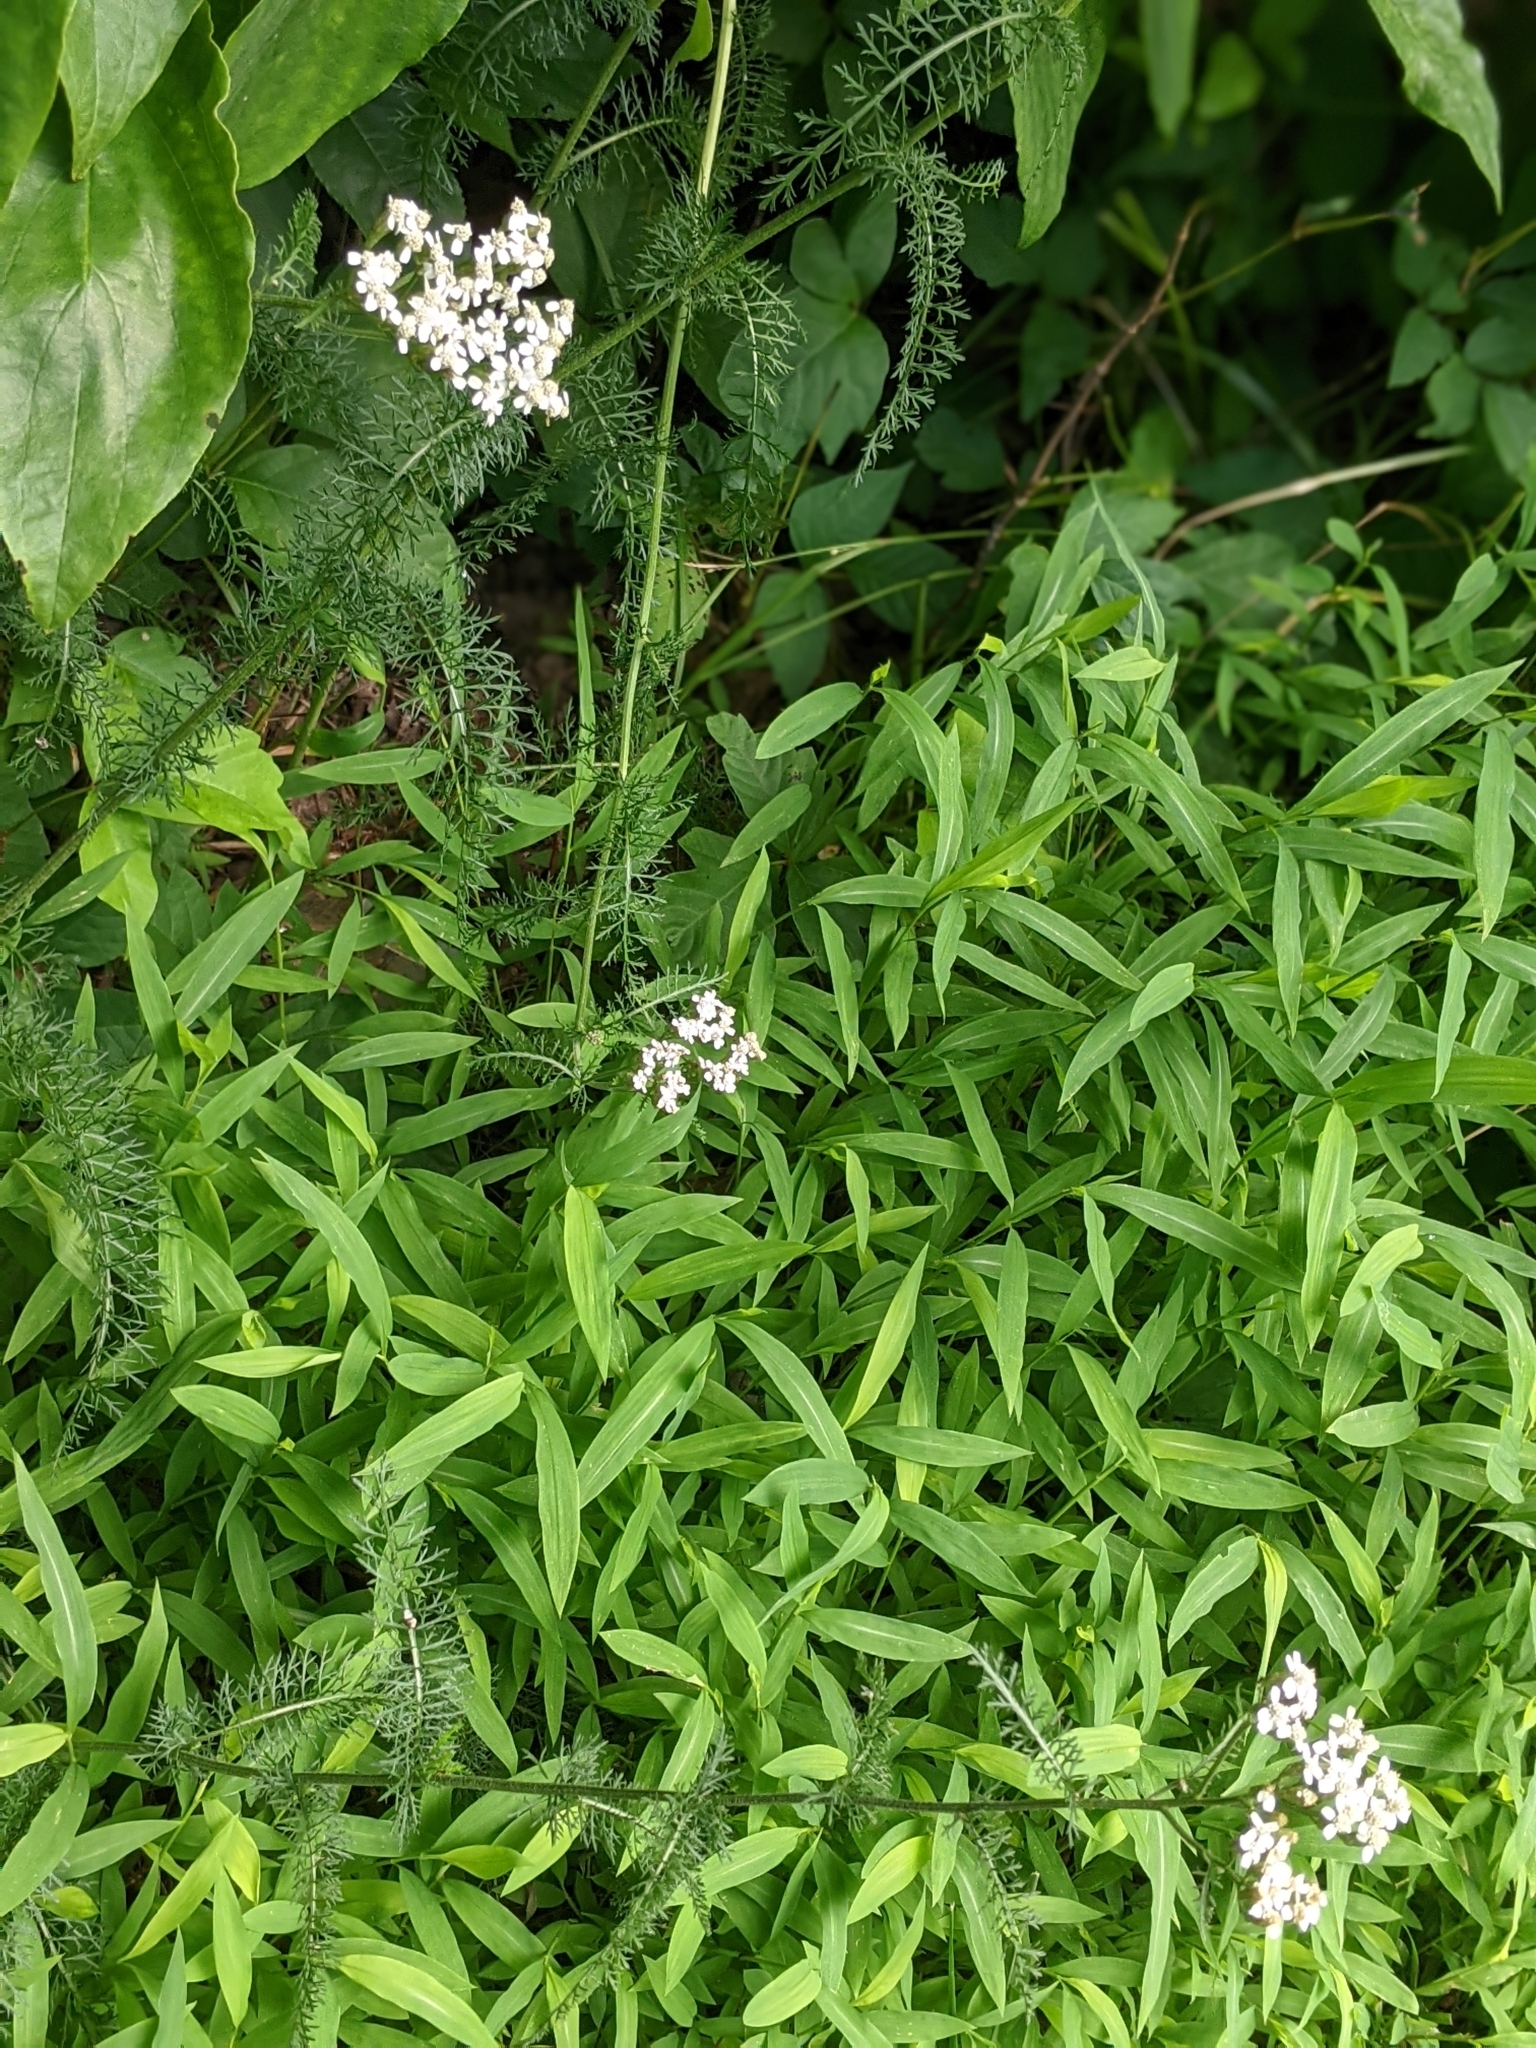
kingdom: Plantae
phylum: Tracheophyta
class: Magnoliopsida
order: Asterales
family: Asteraceae
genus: Achillea
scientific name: Achillea millefolium
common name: Yarrow
